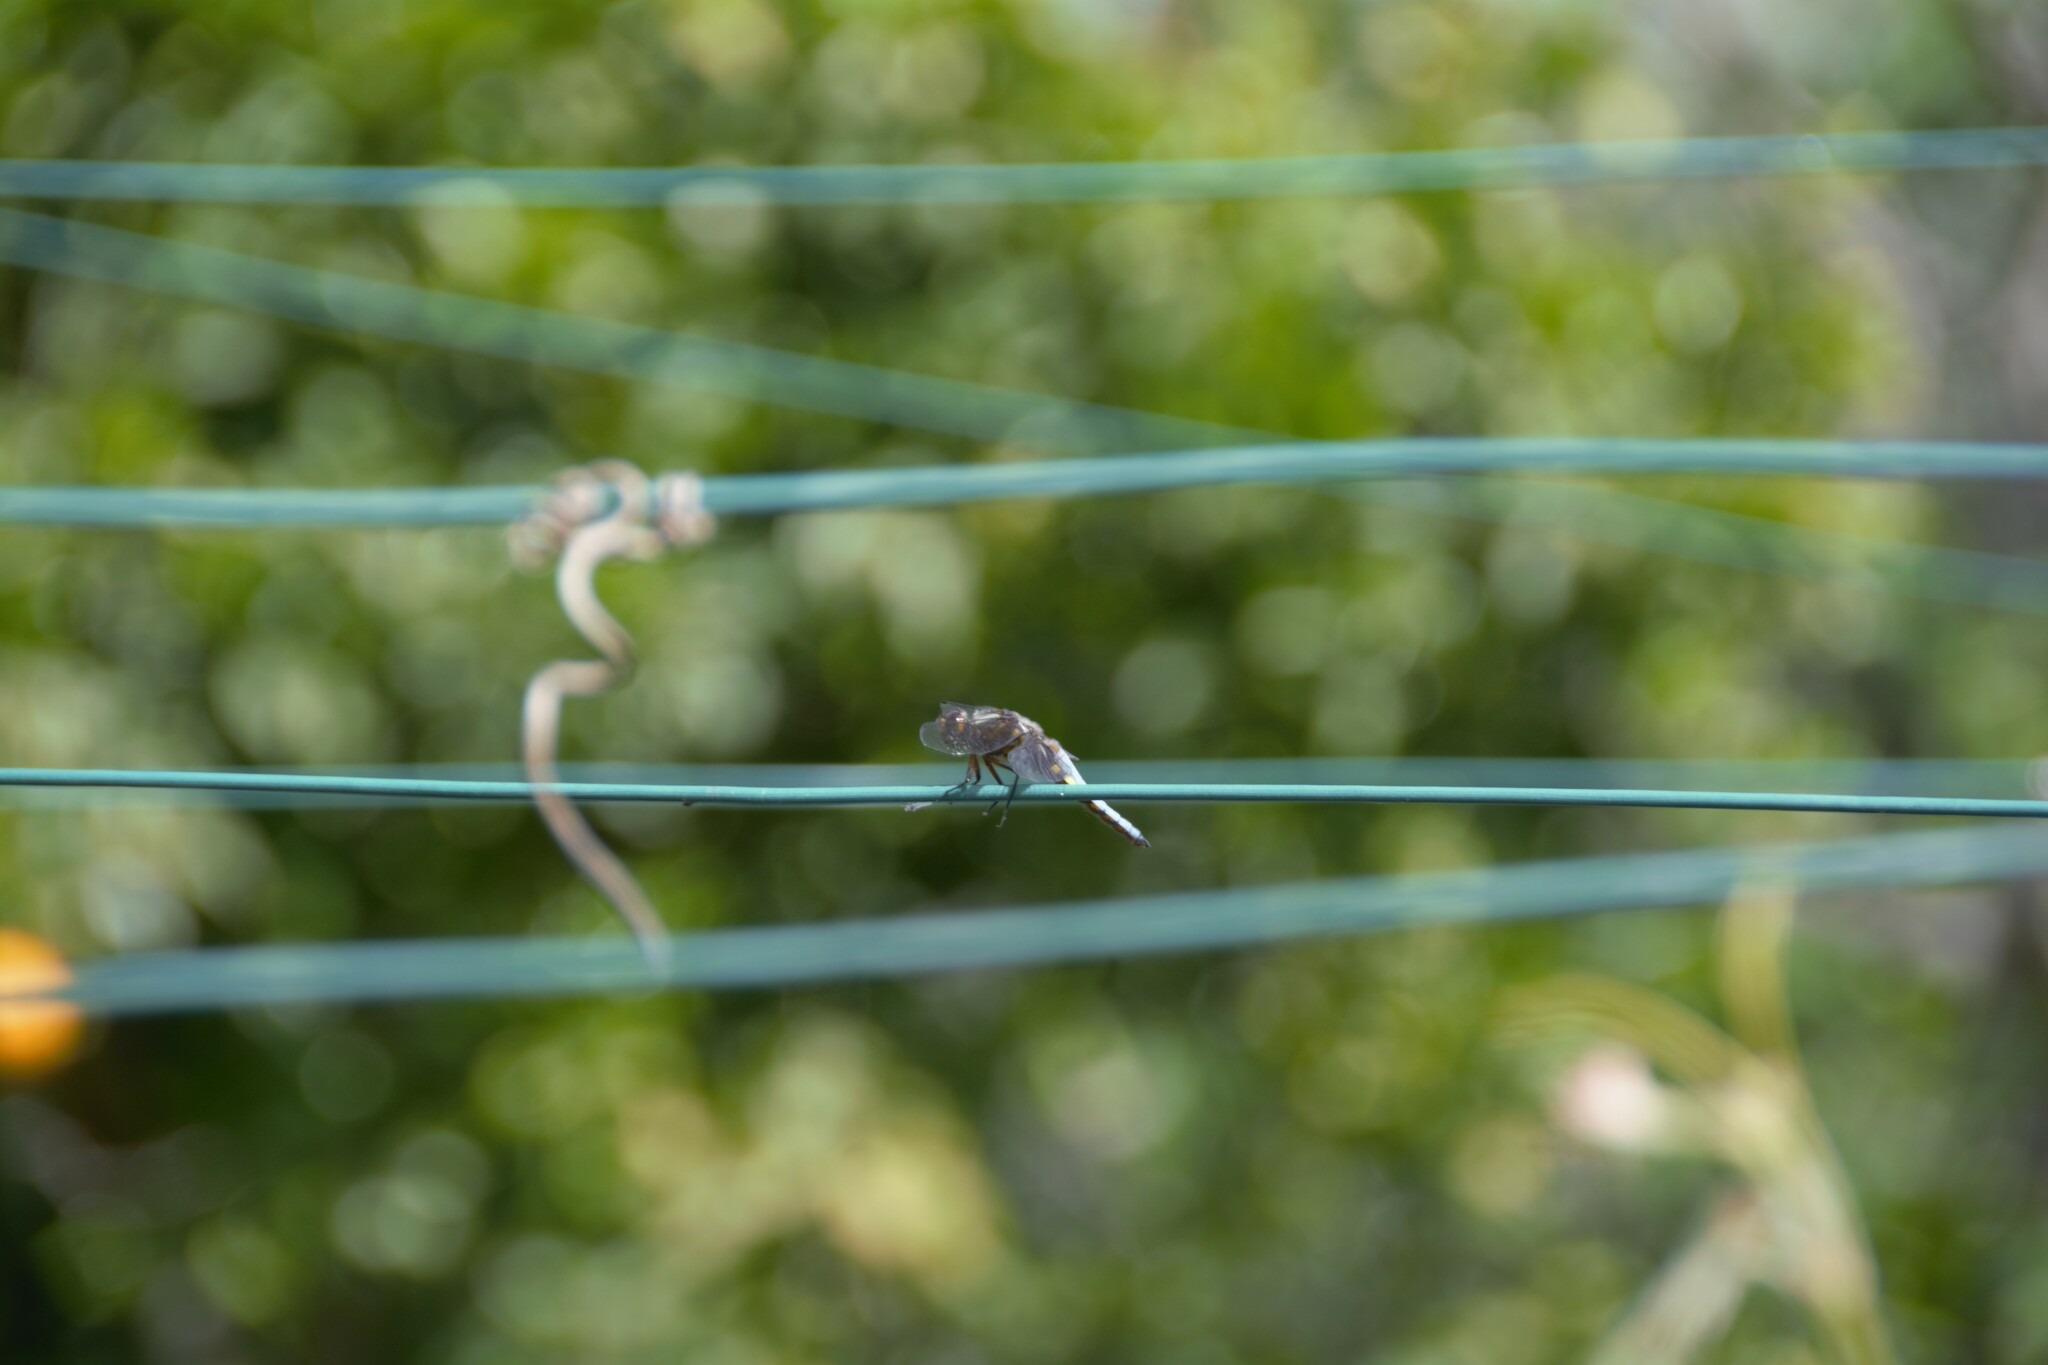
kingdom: Animalia
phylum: Arthropoda
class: Insecta
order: Odonata
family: Libellulidae
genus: Libellula
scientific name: Libellula depressa
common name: Broad-bodied chaser
